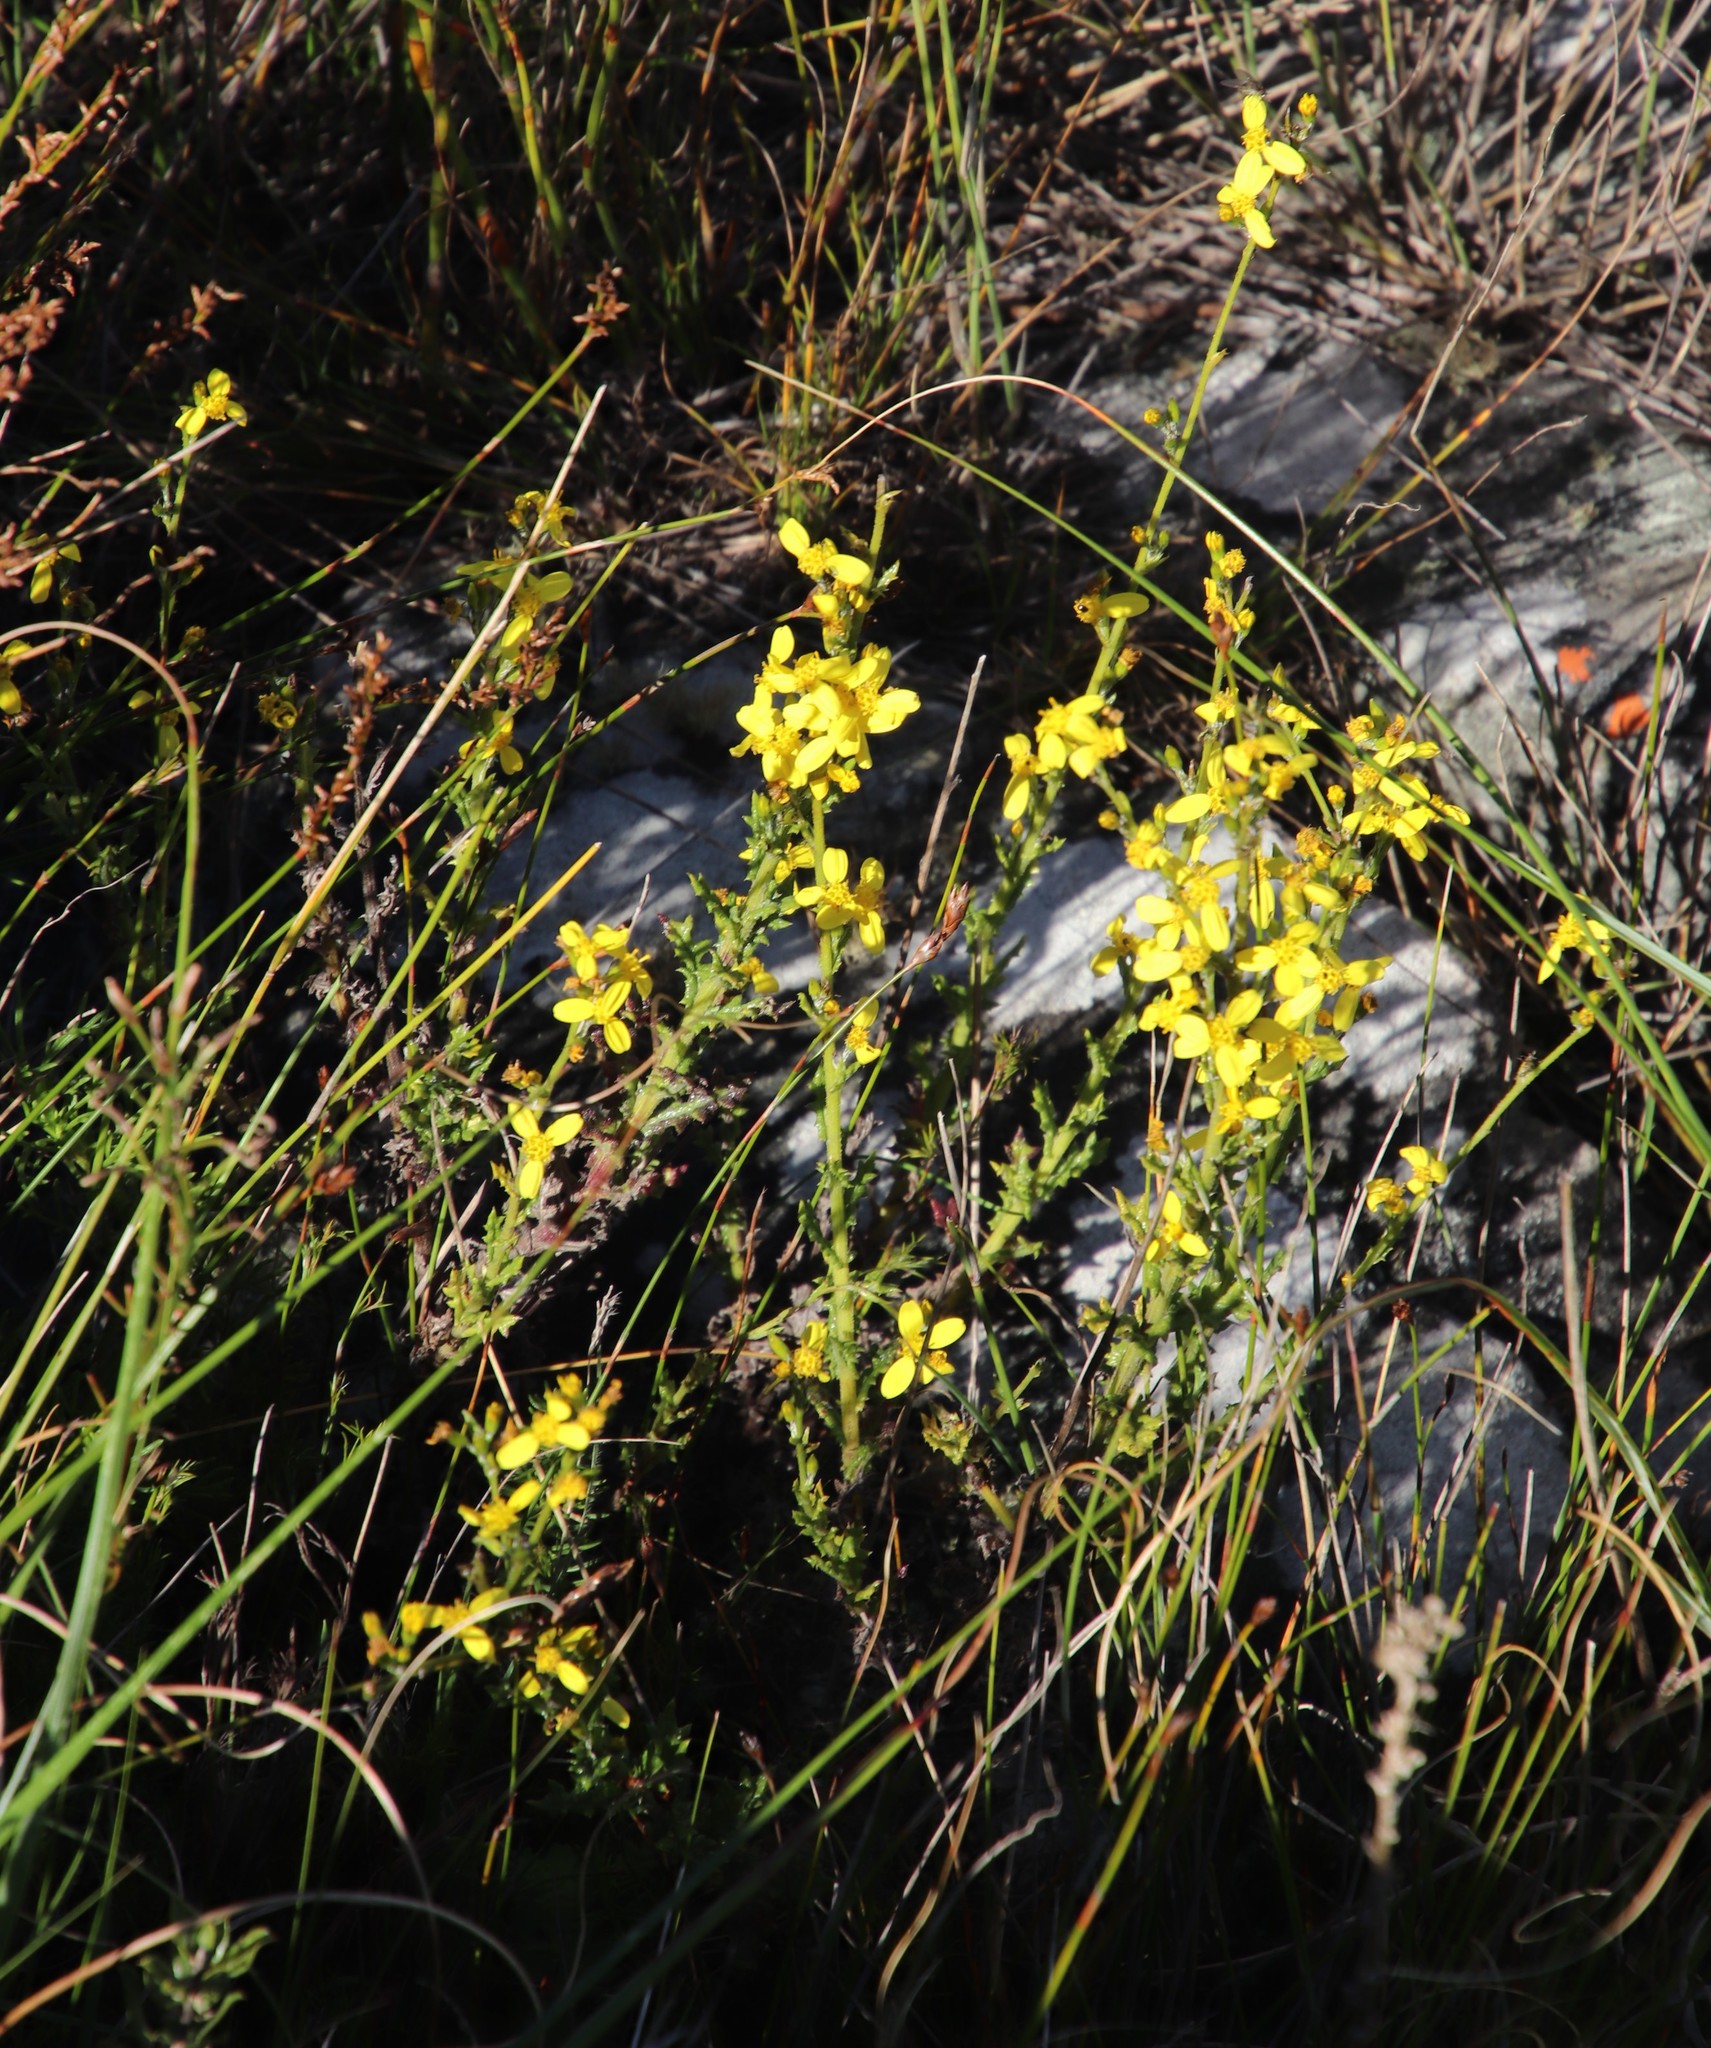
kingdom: Plantae
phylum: Tracheophyta
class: Magnoliopsida
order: Asterales
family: Asteraceae
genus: Senecio
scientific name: Senecio pubigerus
